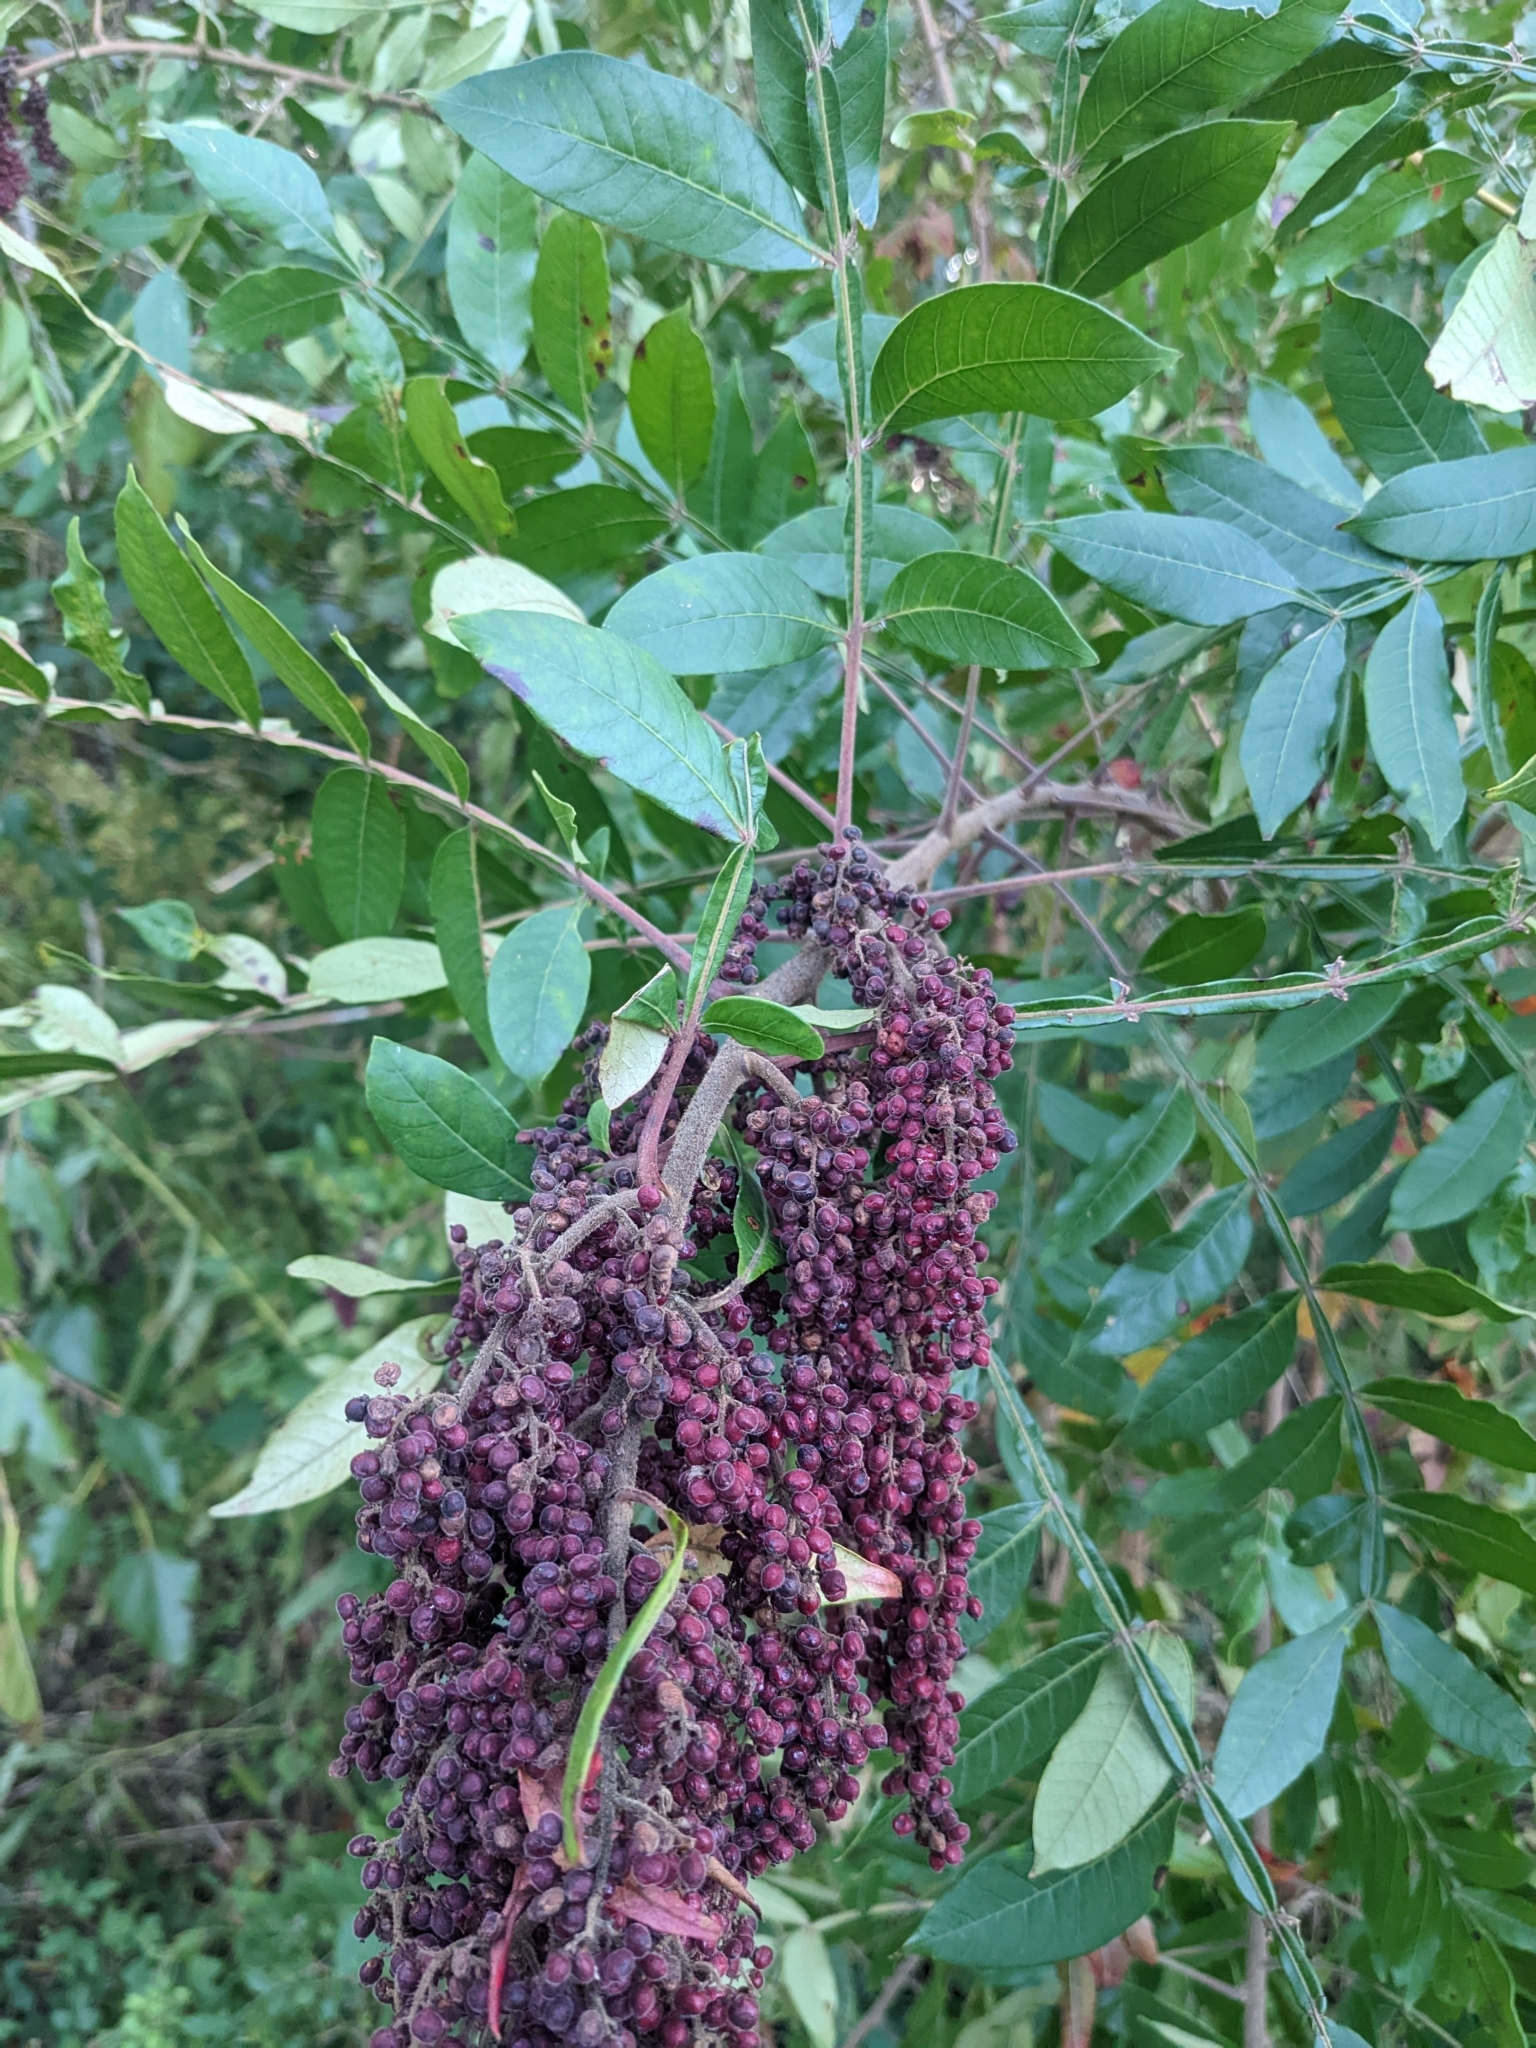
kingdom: Plantae
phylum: Tracheophyta
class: Magnoliopsida
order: Sapindales
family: Anacardiaceae
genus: Rhus
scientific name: Rhus copallina
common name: Shining sumac
